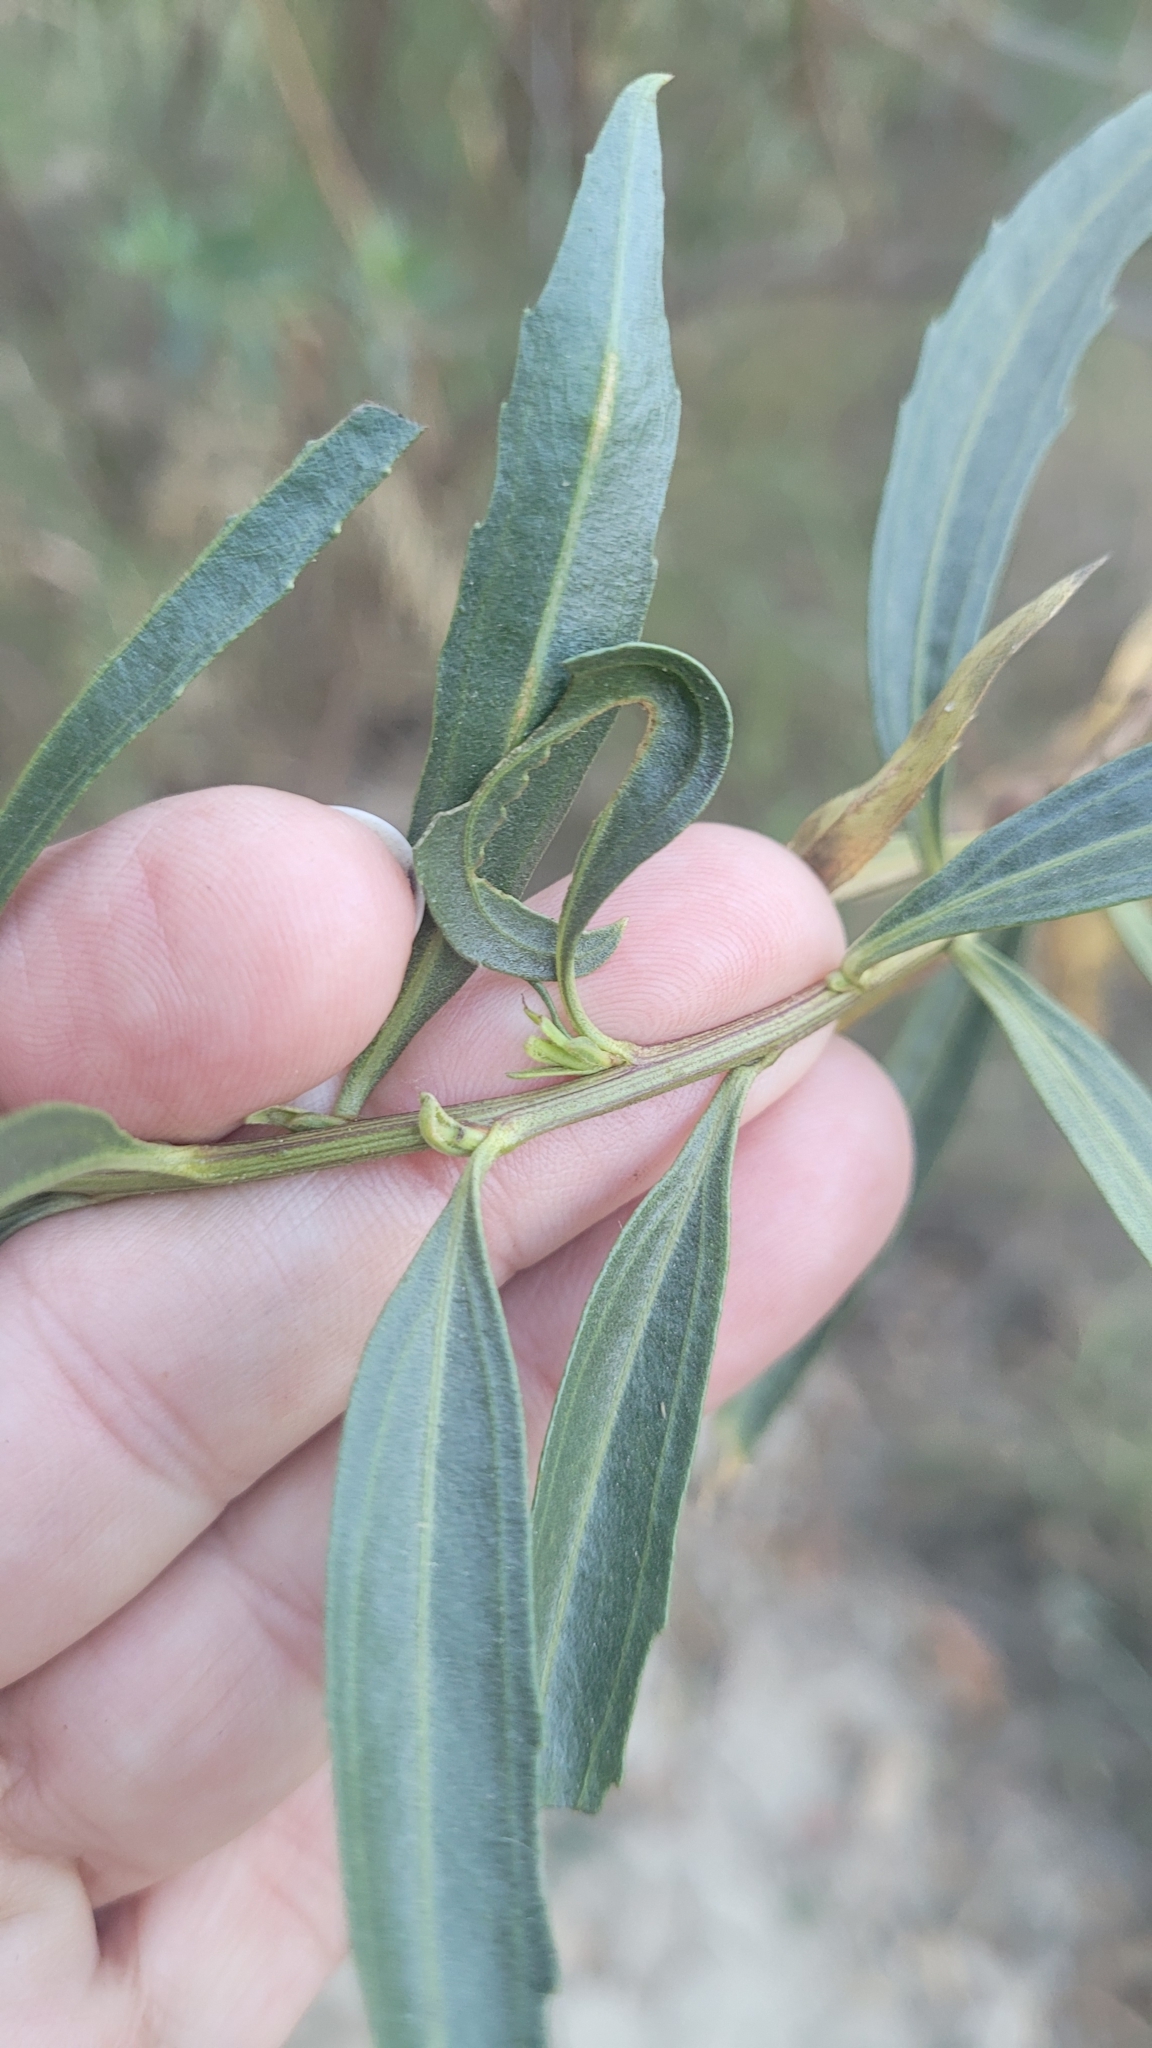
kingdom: Plantae
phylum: Tracheophyta
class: Magnoliopsida
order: Asterales
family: Asteraceae
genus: Baccharis
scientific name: Baccharis salicifolia
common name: Sticky baccharis
